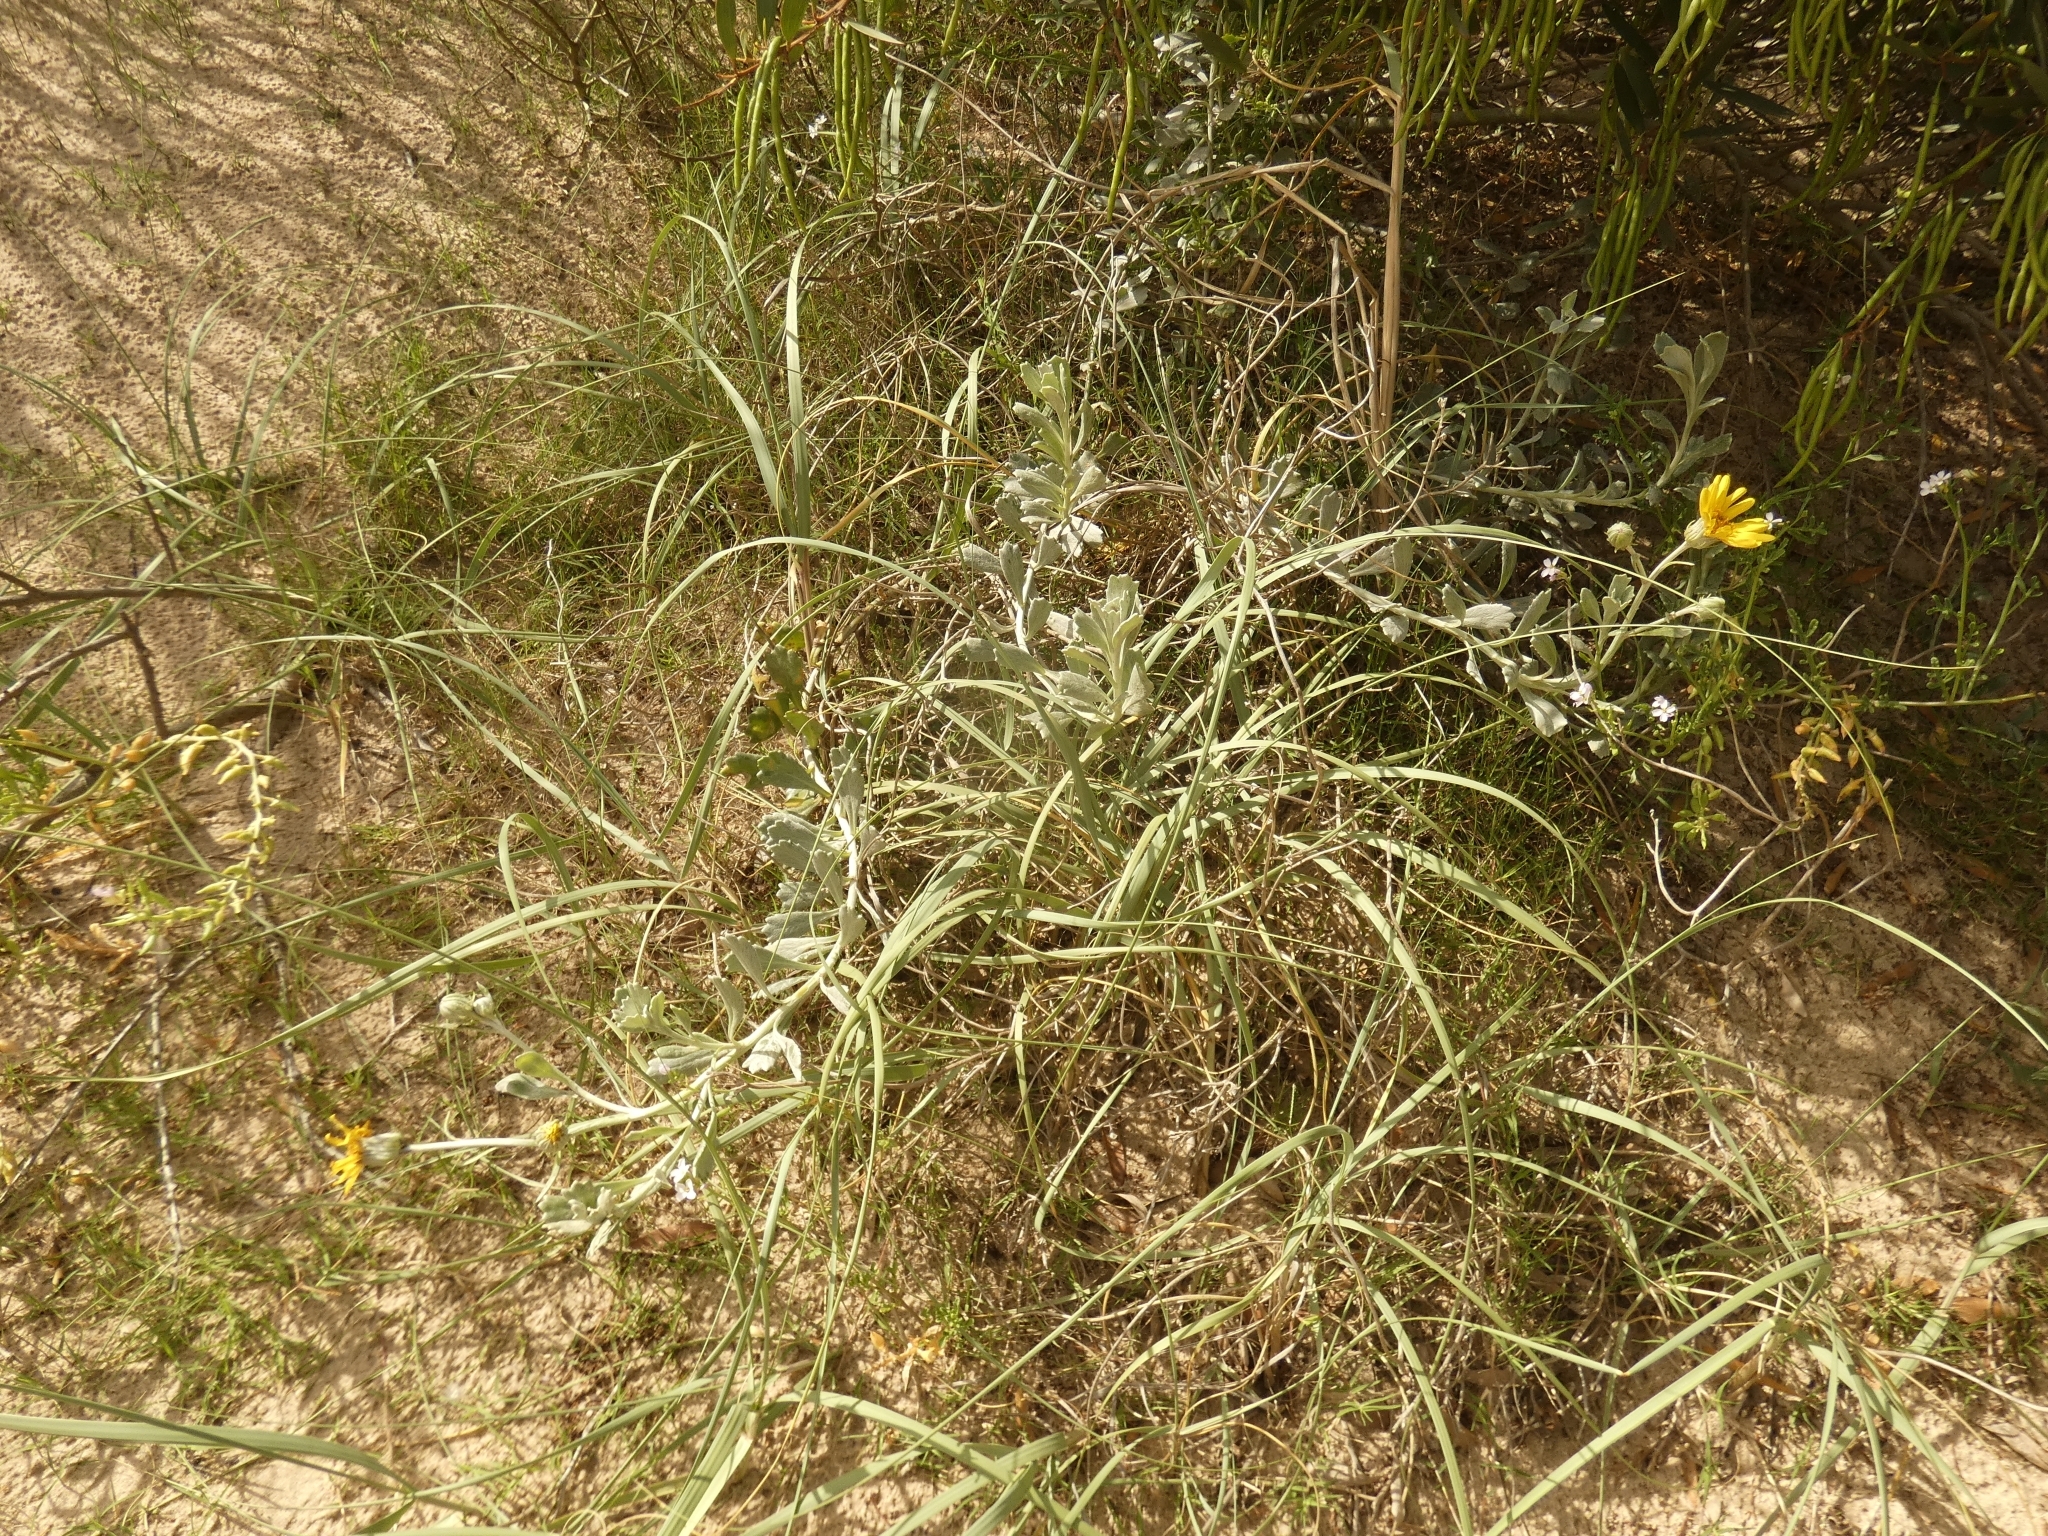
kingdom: Plantae
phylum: Tracheophyta
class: Magnoliopsida
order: Asterales
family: Asteraceae
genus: Senecio
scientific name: Senecio crassiflorus
